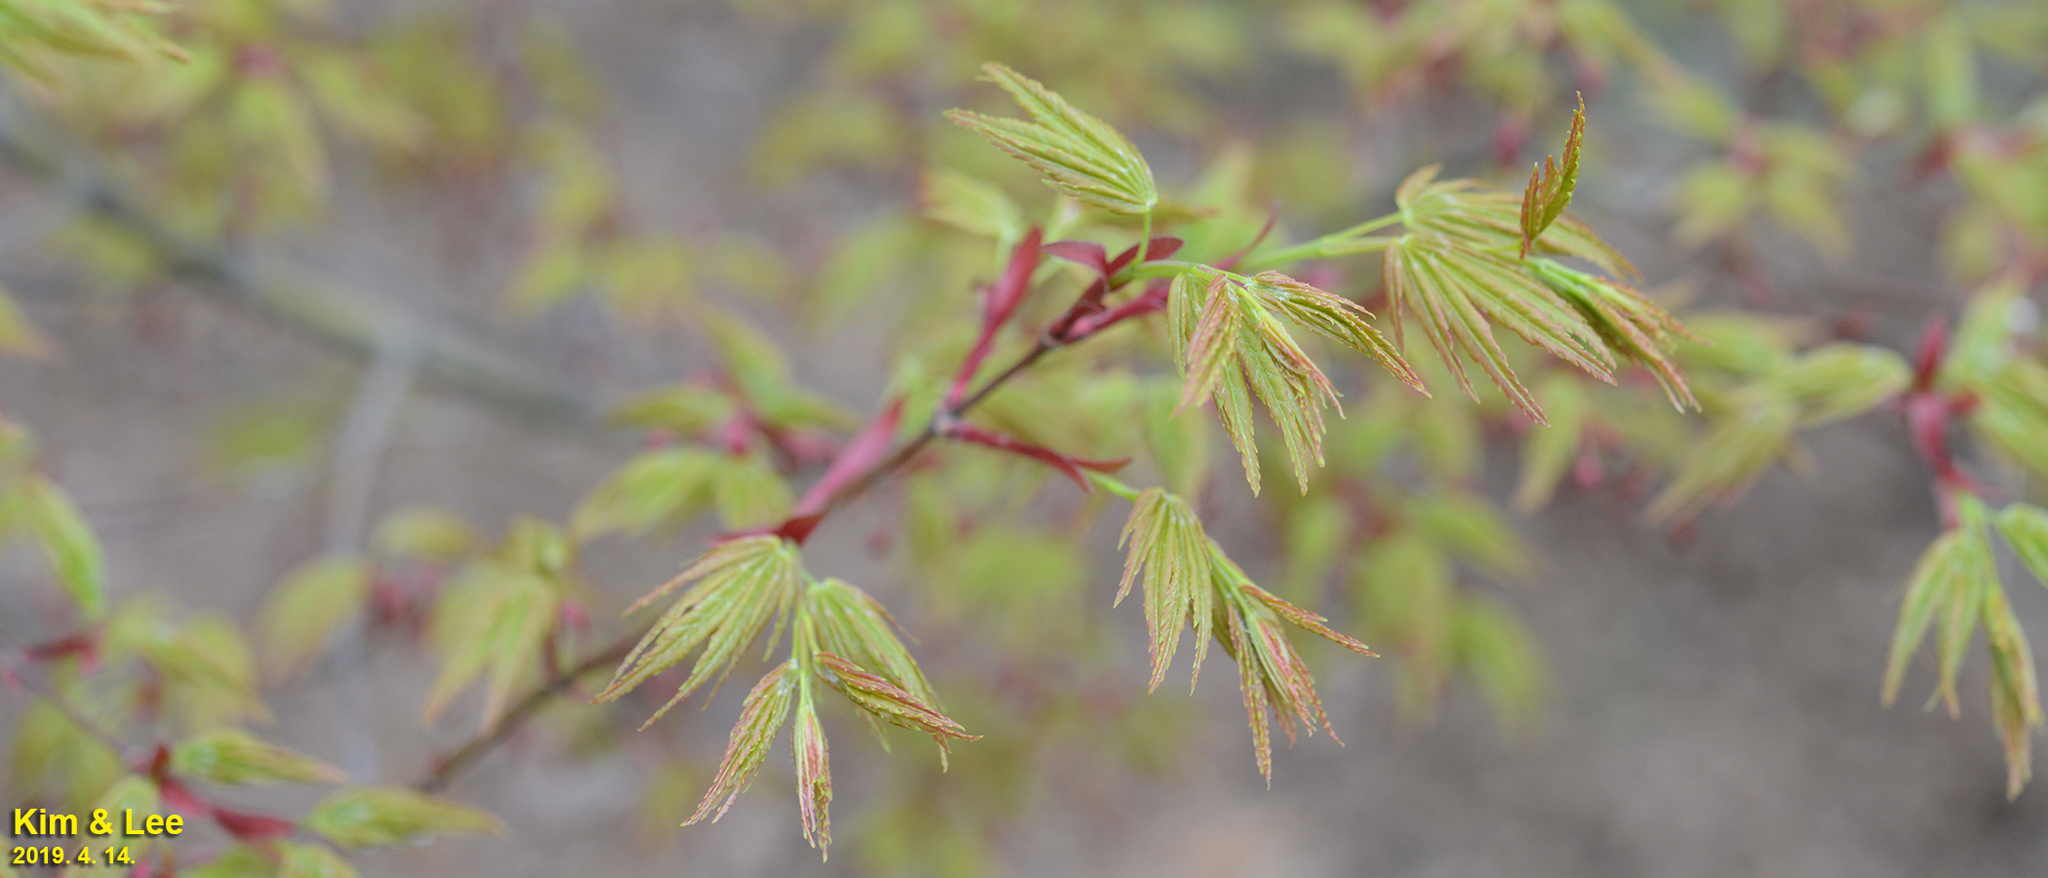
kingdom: Plantae
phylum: Tracheophyta
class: Magnoliopsida
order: Sapindales
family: Sapindaceae
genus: Acer
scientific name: Acer palmatum
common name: Japanese maple
